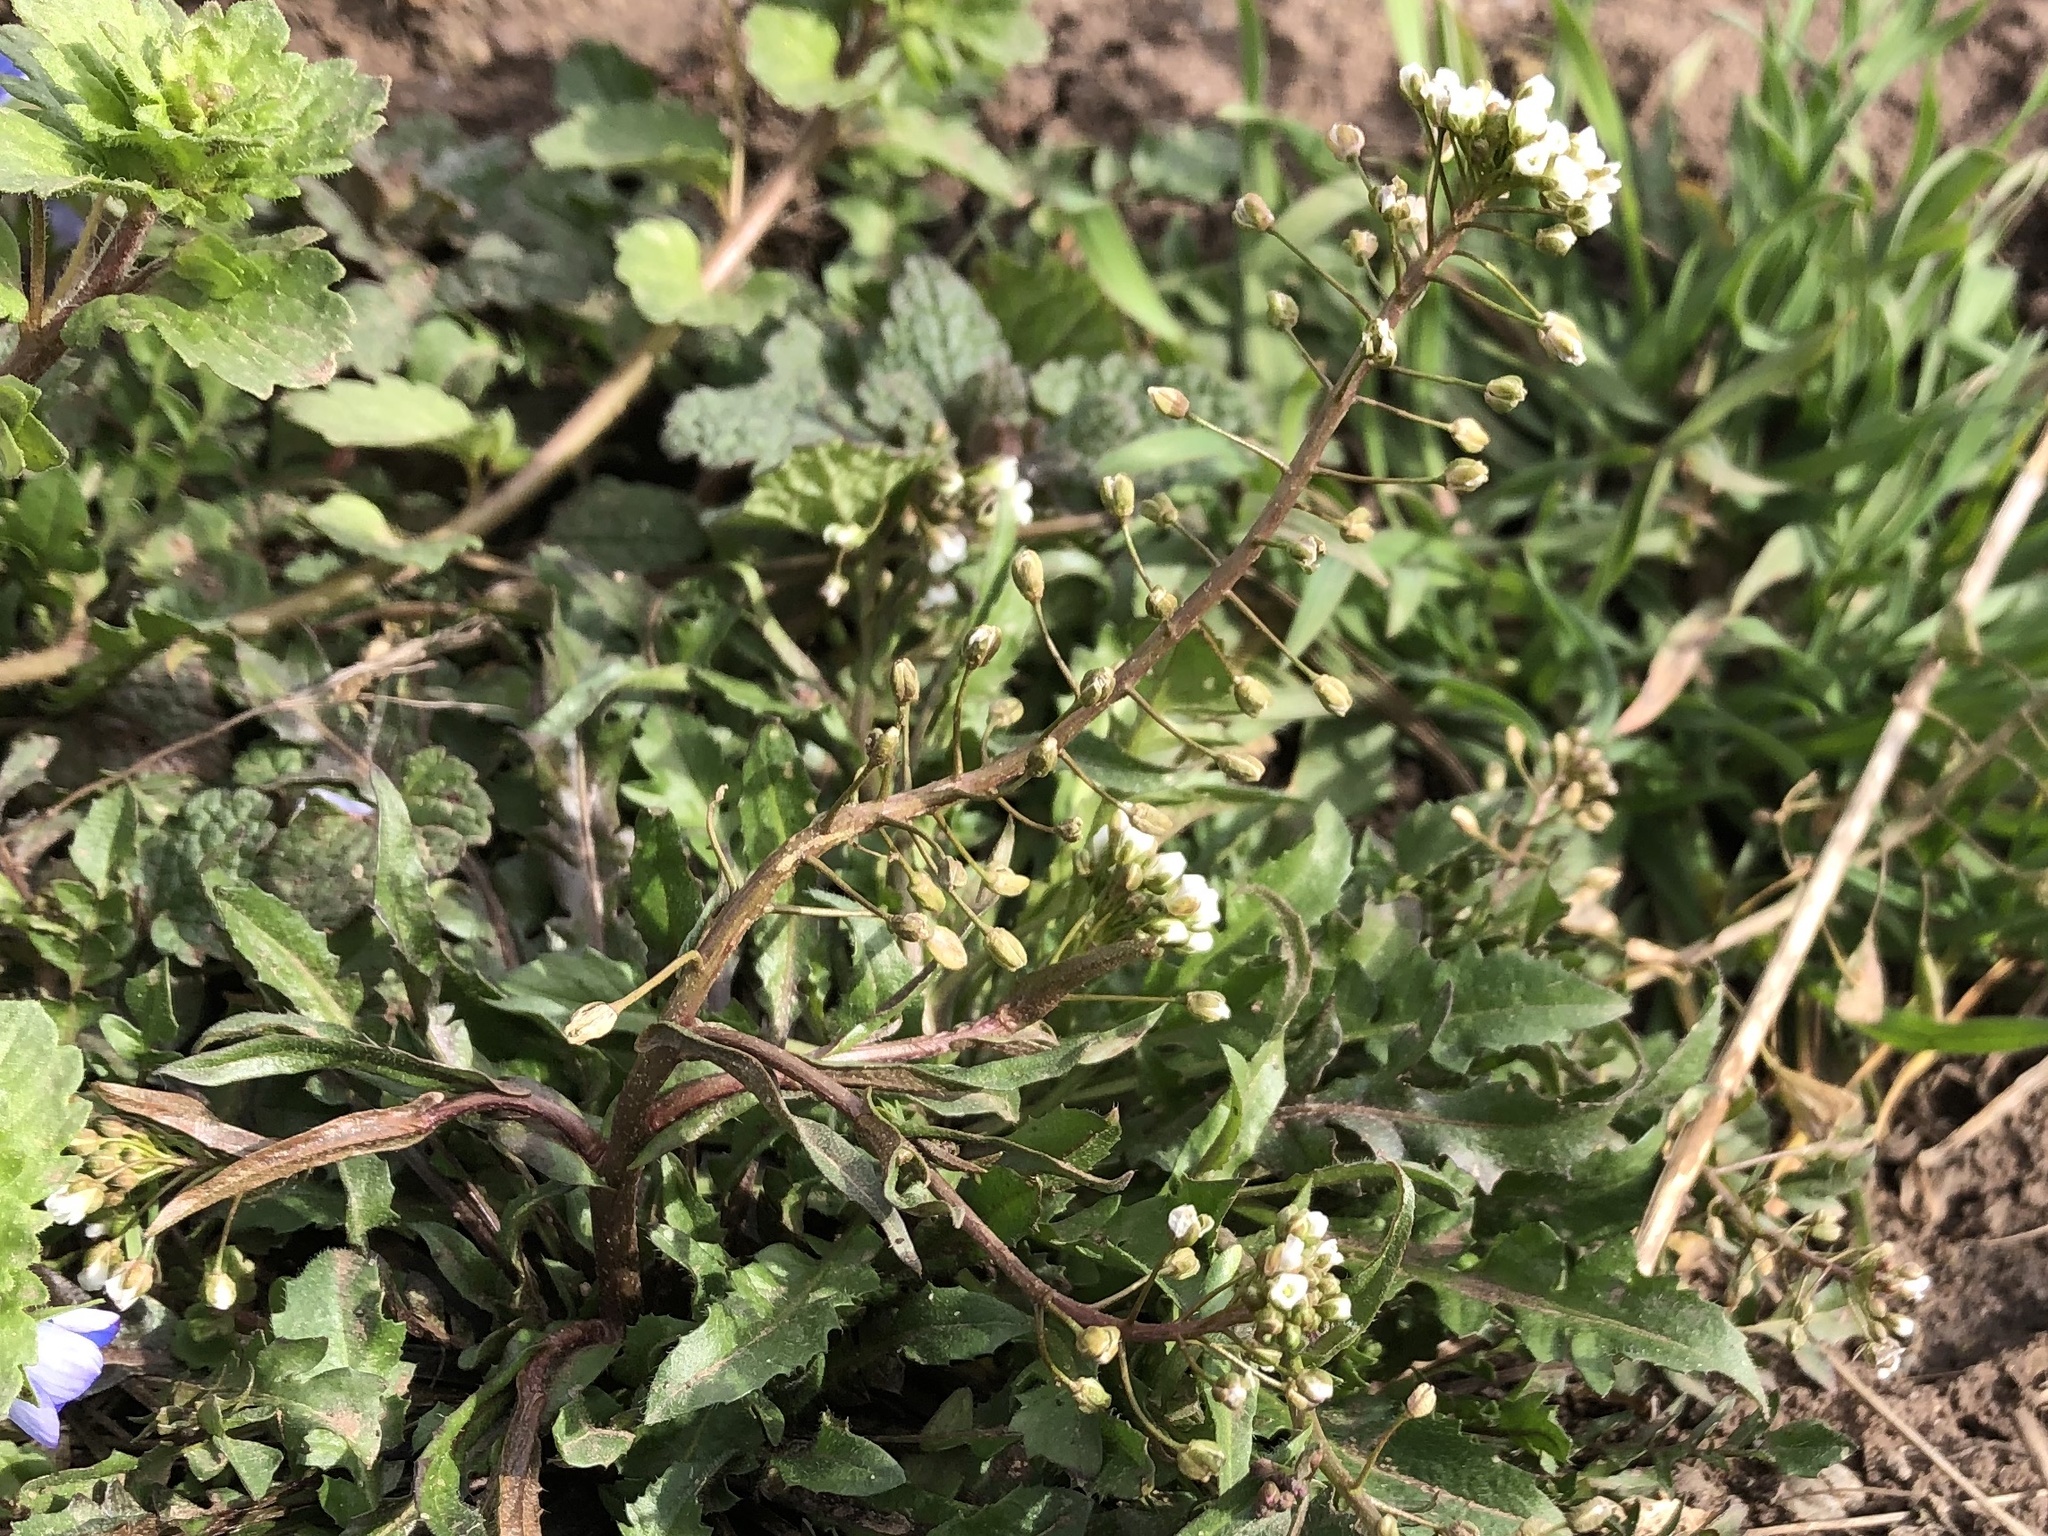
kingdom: Plantae
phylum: Tracheophyta
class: Magnoliopsida
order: Brassicales
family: Brassicaceae
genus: Capsella
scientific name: Capsella bursa-pastoris
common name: Shepherd's purse
